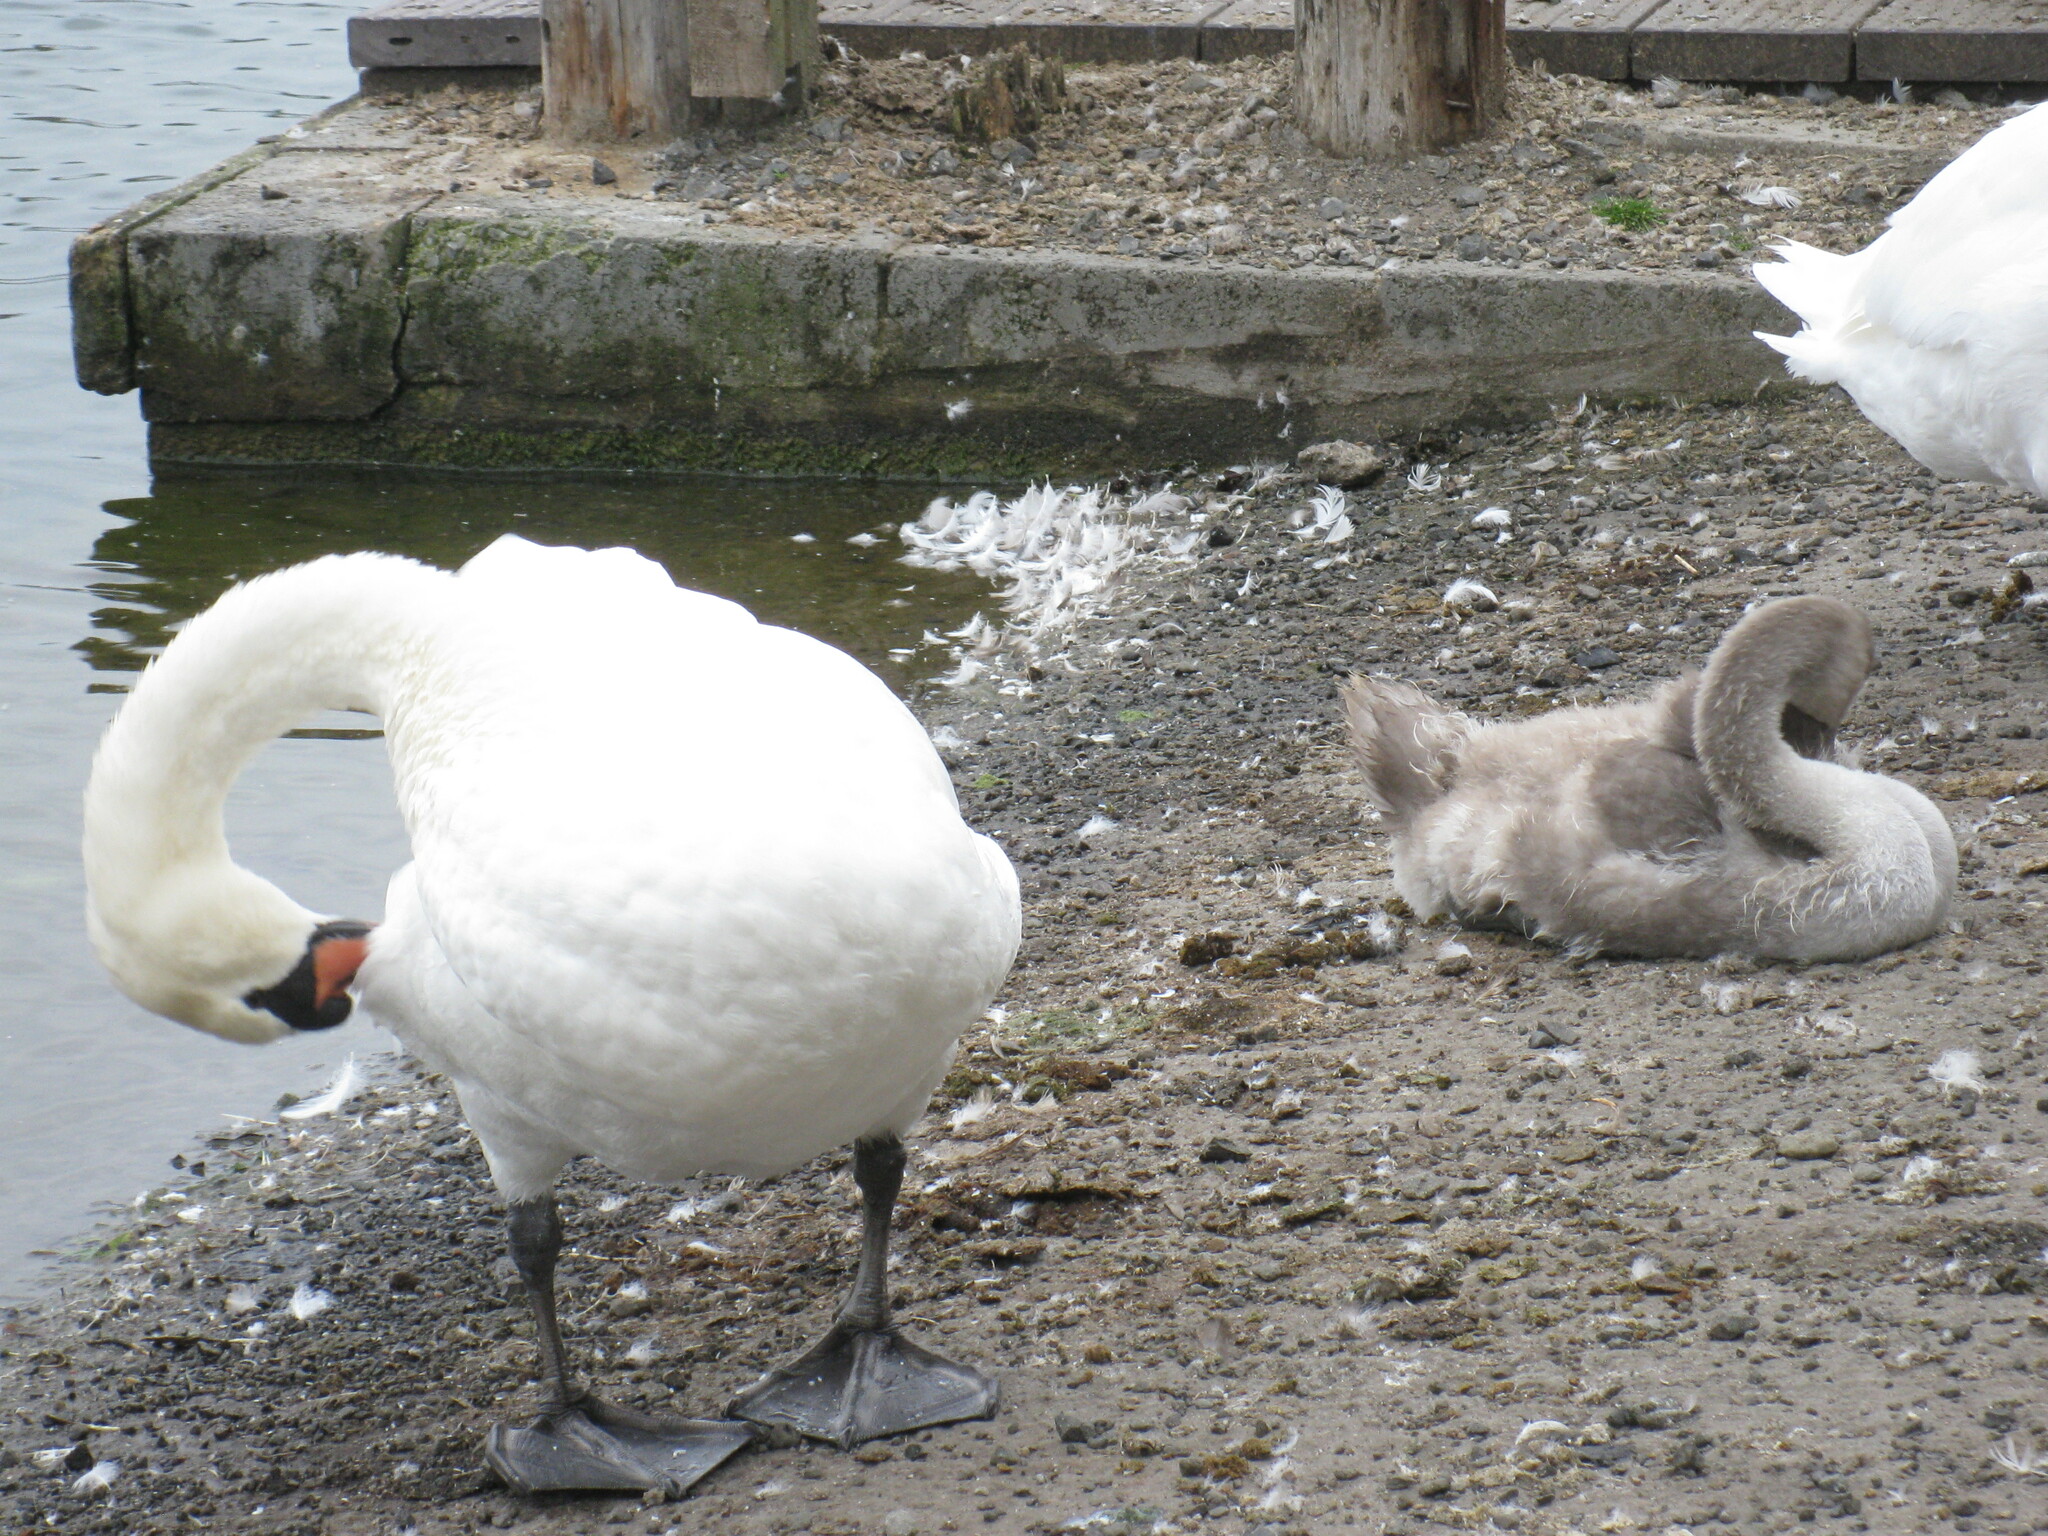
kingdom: Animalia
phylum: Chordata
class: Aves
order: Anseriformes
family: Anatidae
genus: Cygnus
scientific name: Cygnus olor
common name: Mute swan
